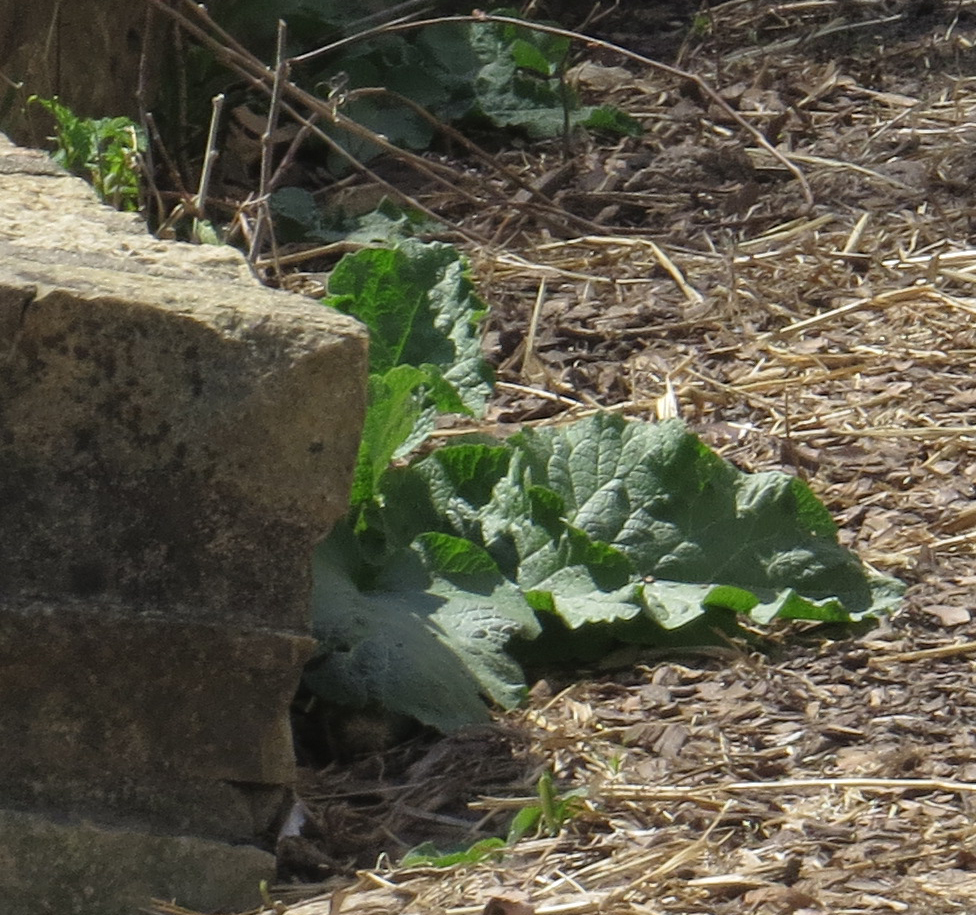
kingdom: Plantae
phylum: Tracheophyta
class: Magnoliopsida
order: Asterales
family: Asteraceae
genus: Arctium
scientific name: Arctium
